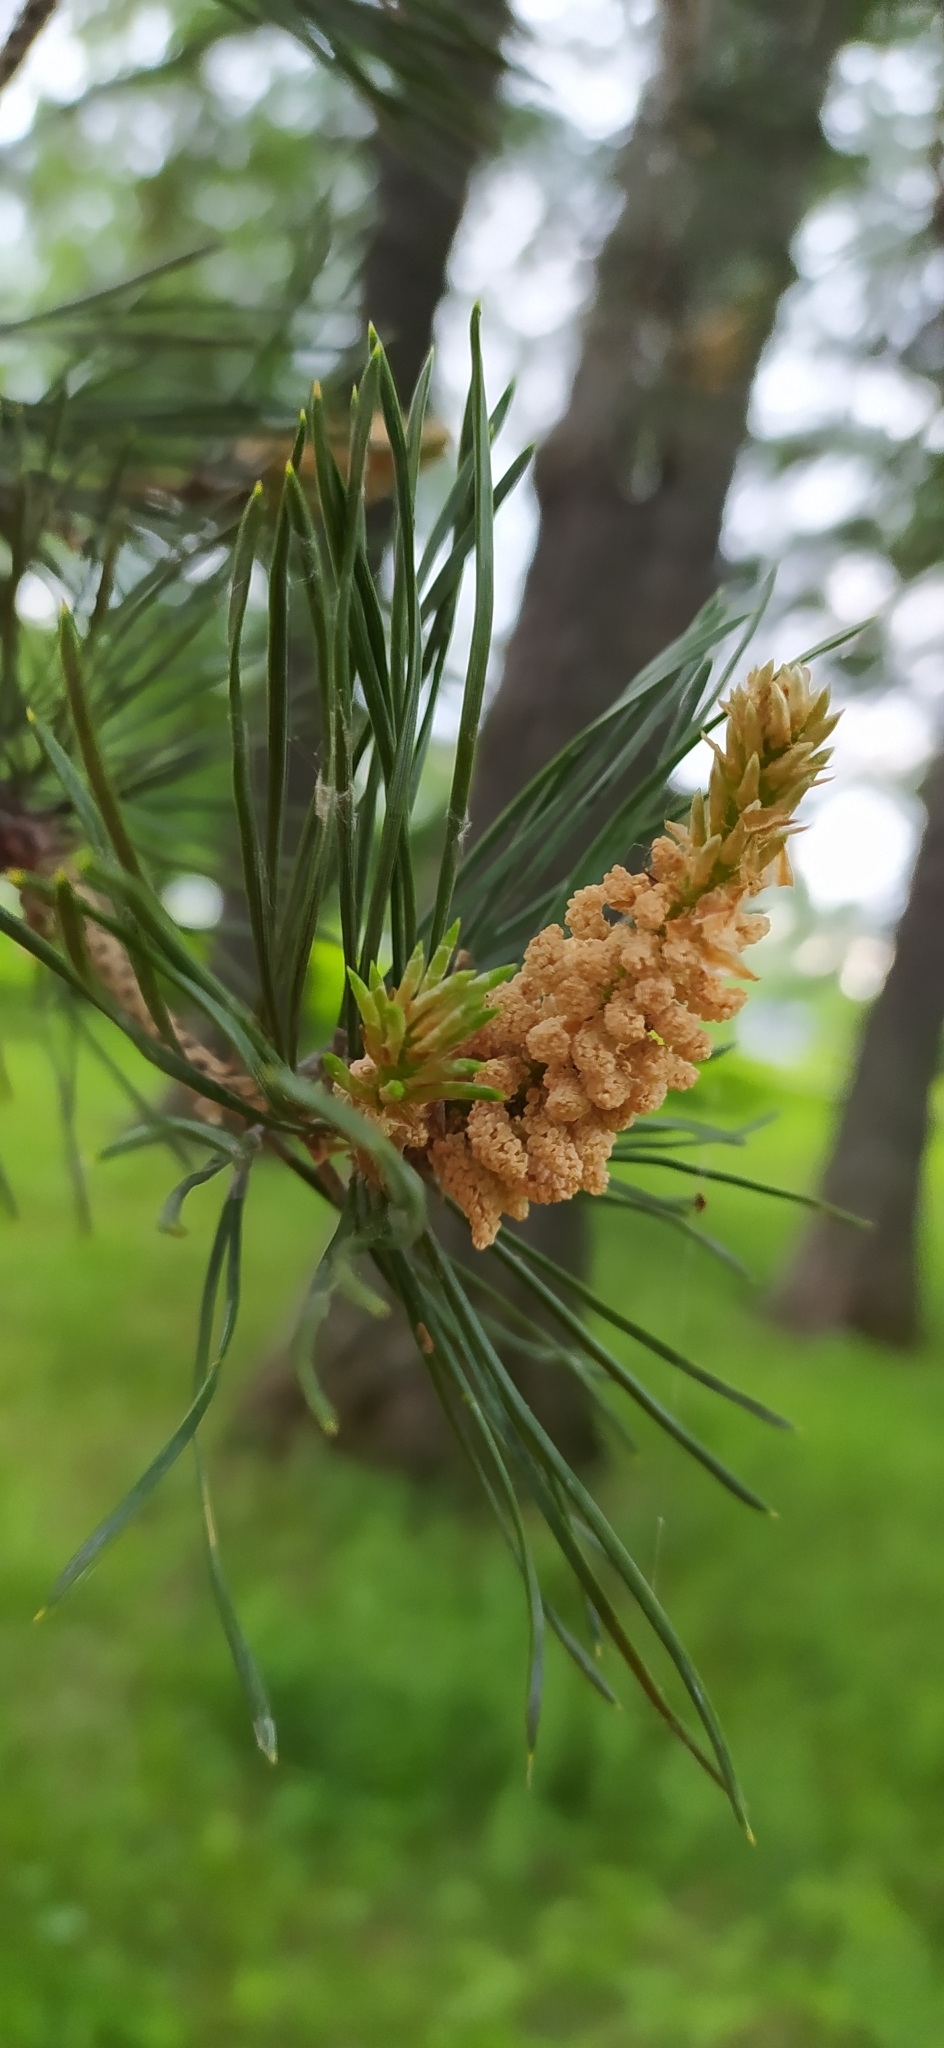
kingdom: Plantae
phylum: Tracheophyta
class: Pinopsida
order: Pinales
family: Pinaceae
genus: Pinus
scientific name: Pinus sylvestris
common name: Scots pine
